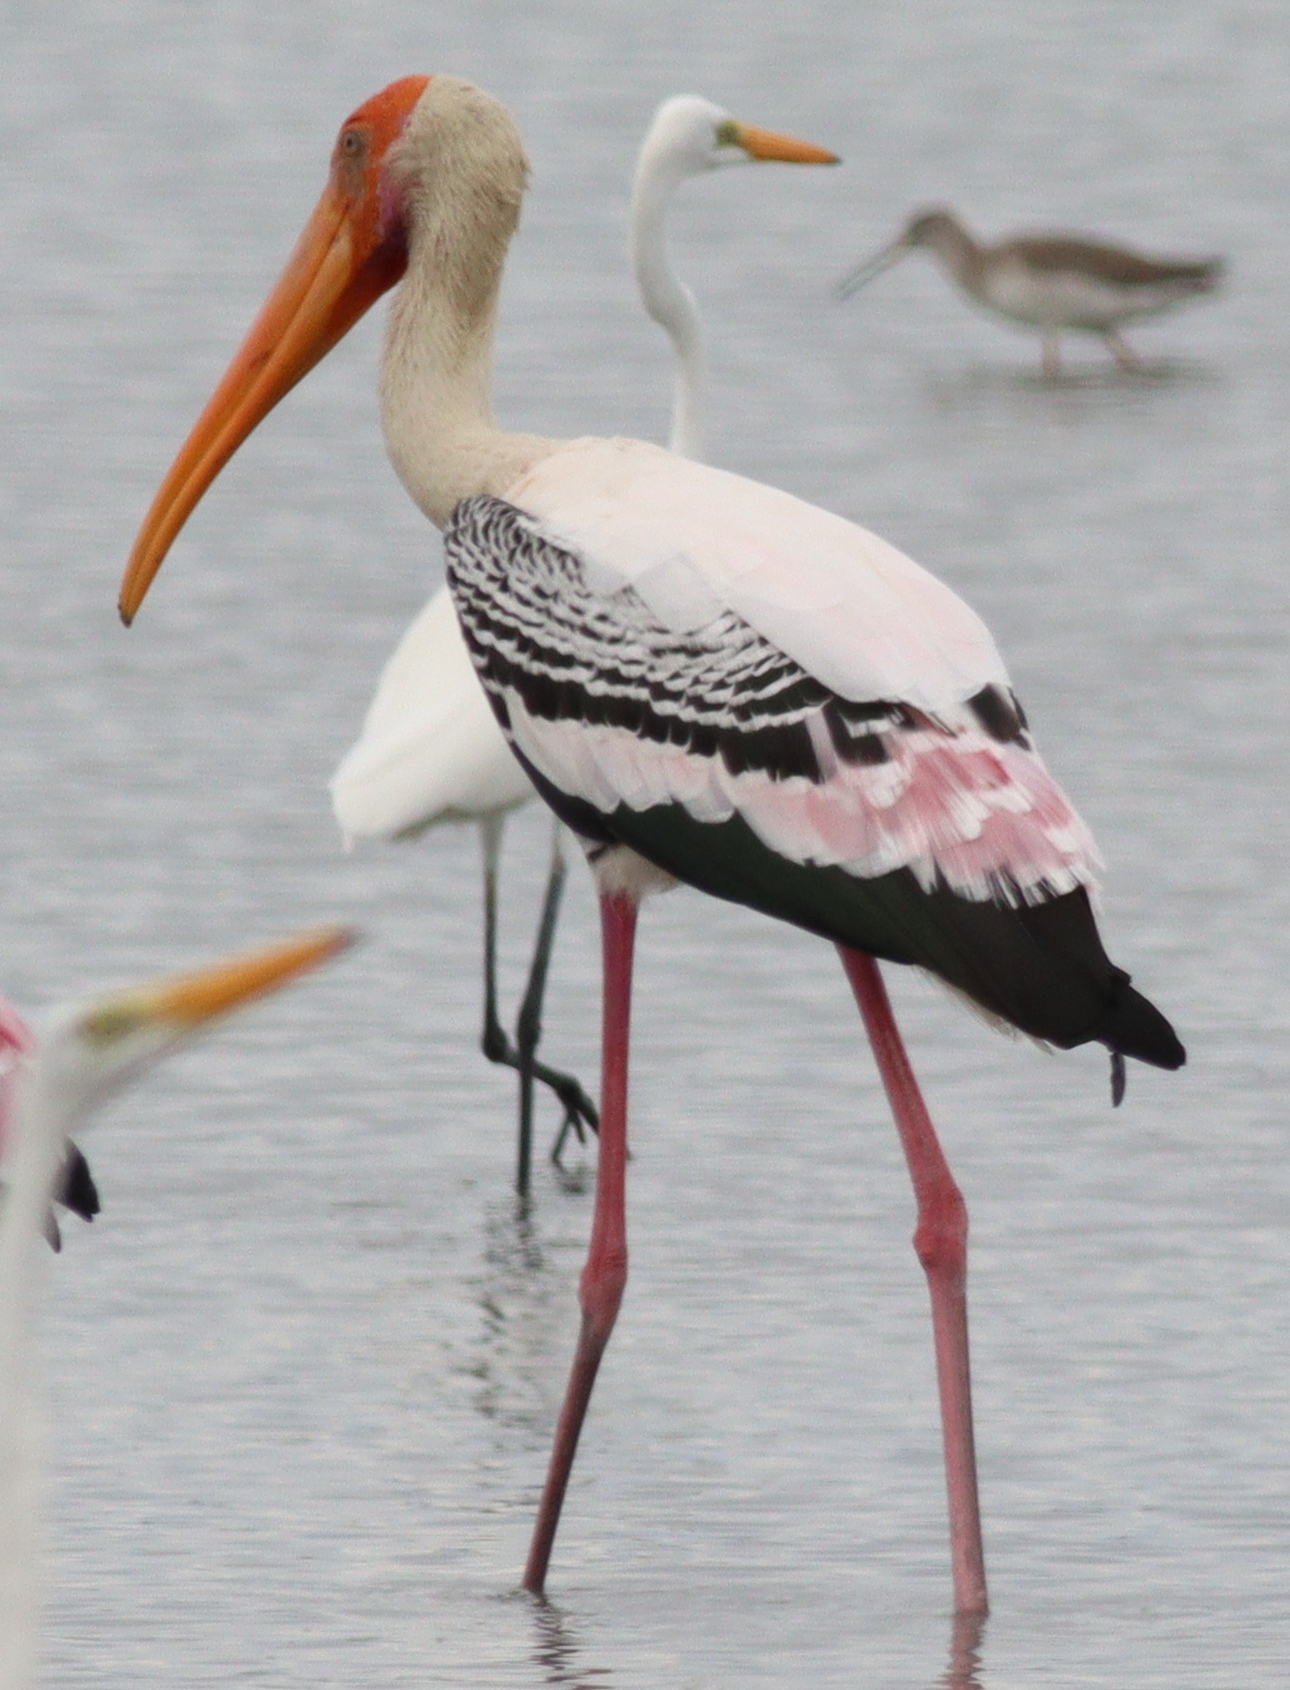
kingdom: Animalia
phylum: Chordata
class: Aves
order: Ciconiiformes
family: Ciconiidae
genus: Mycteria
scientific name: Mycteria leucocephala
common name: Painted stork
